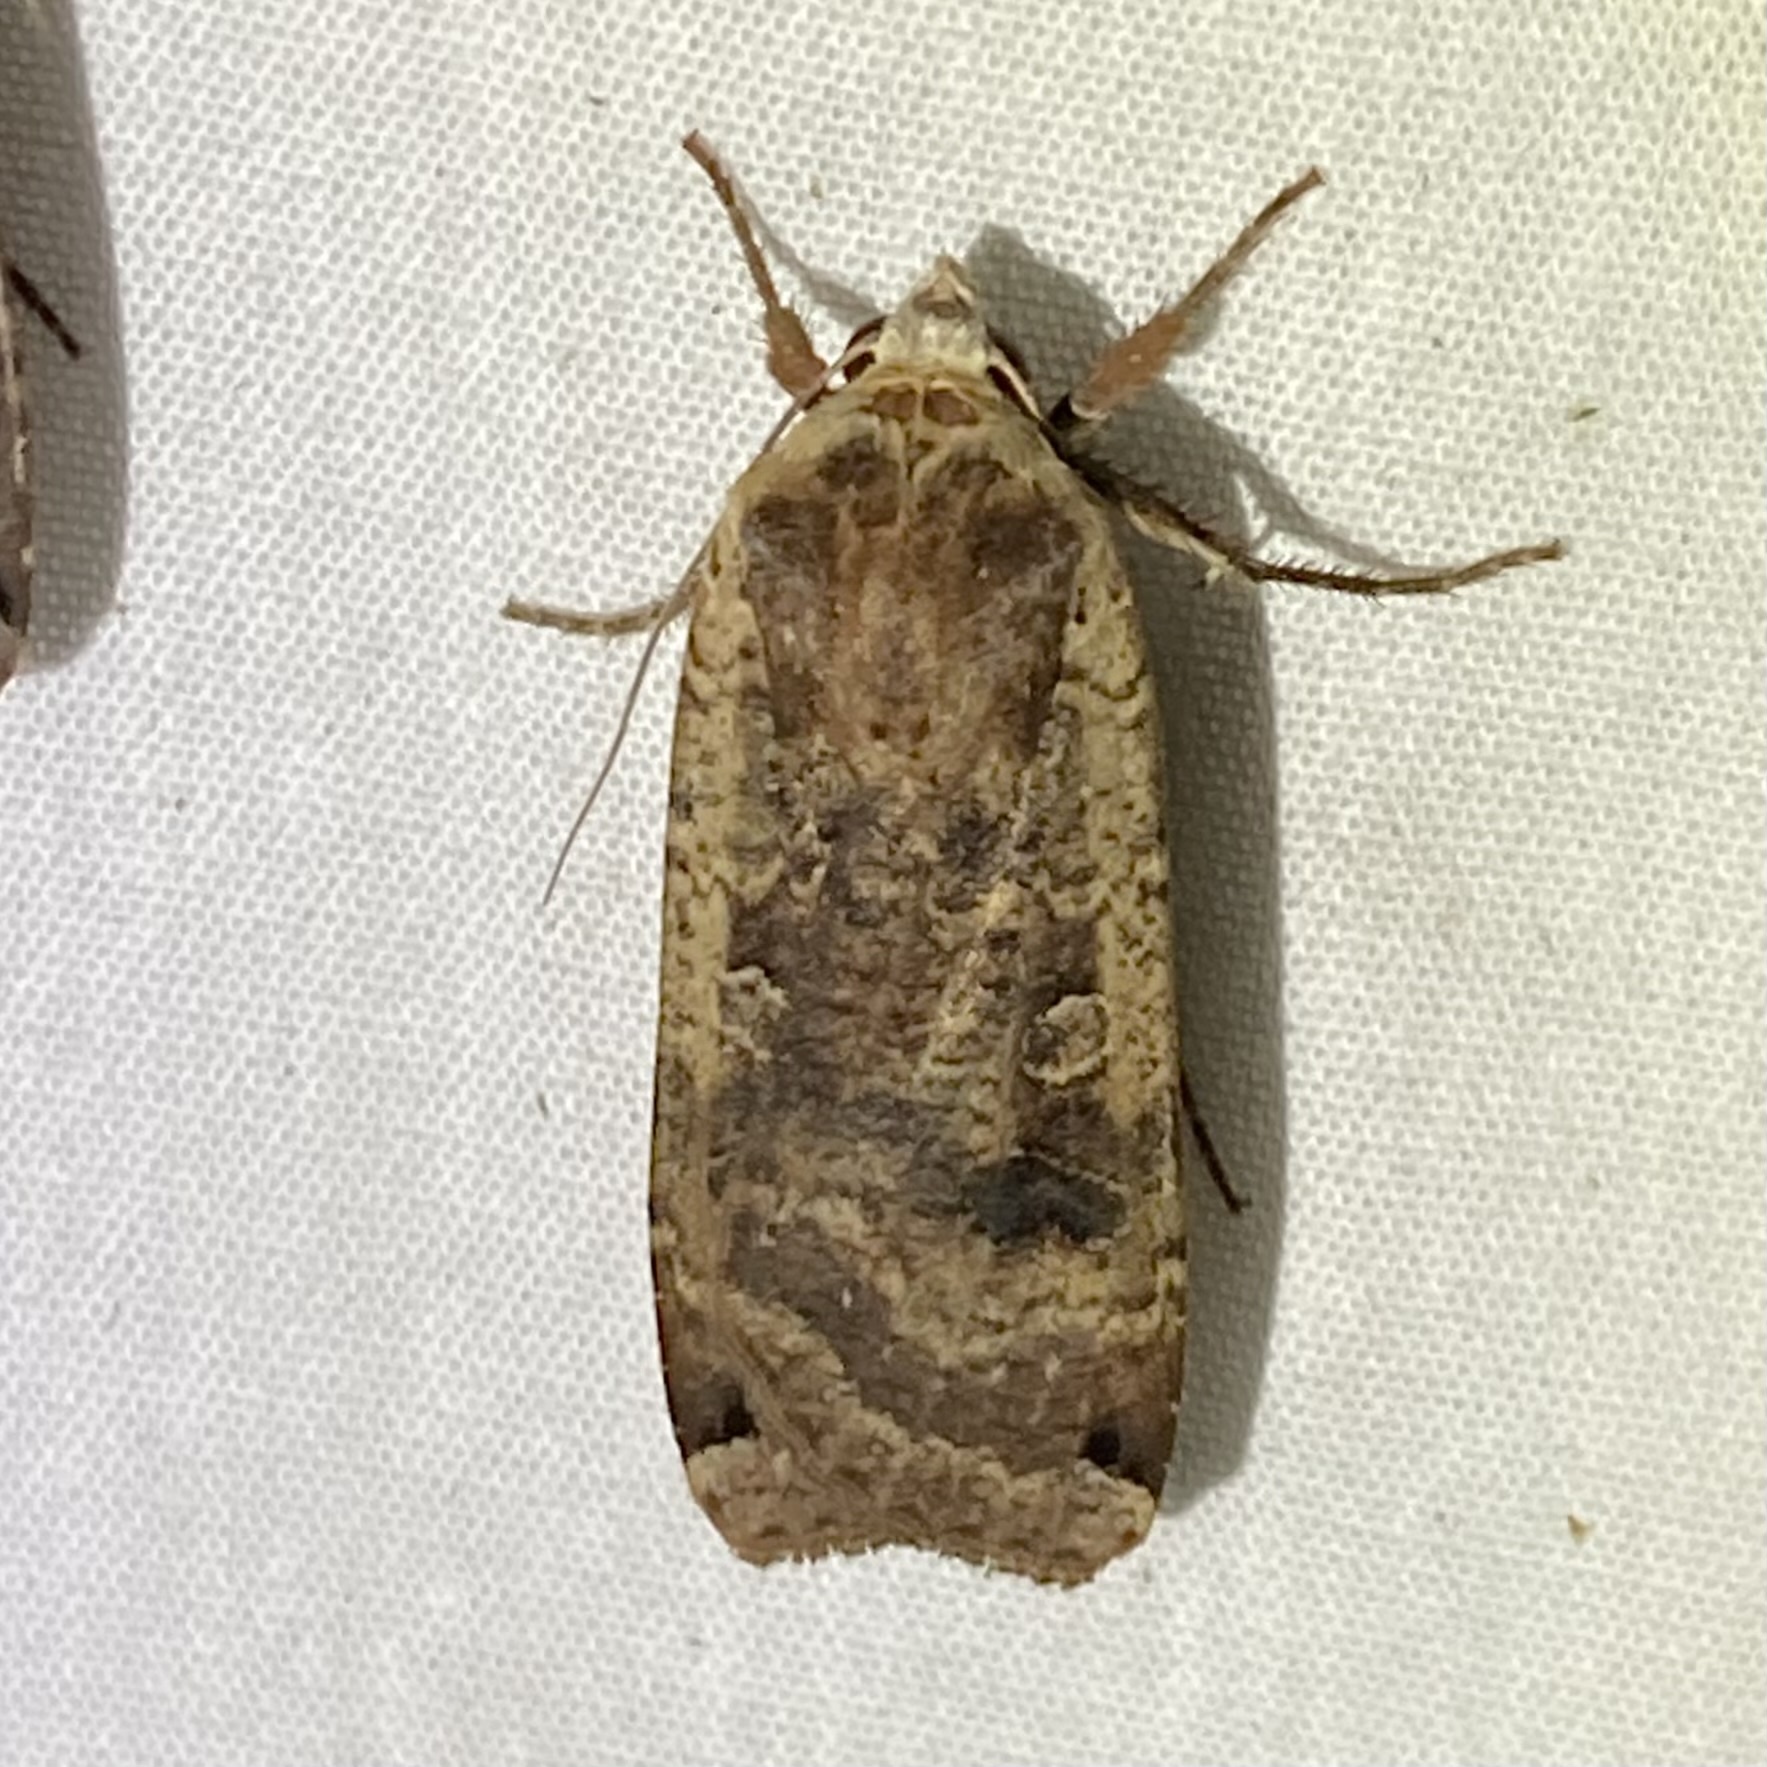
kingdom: Animalia
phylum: Arthropoda
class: Insecta
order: Lepidoptera
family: Noctuidae
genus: Noctua
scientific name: Noctua pronuba
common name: Large yellow underwing
